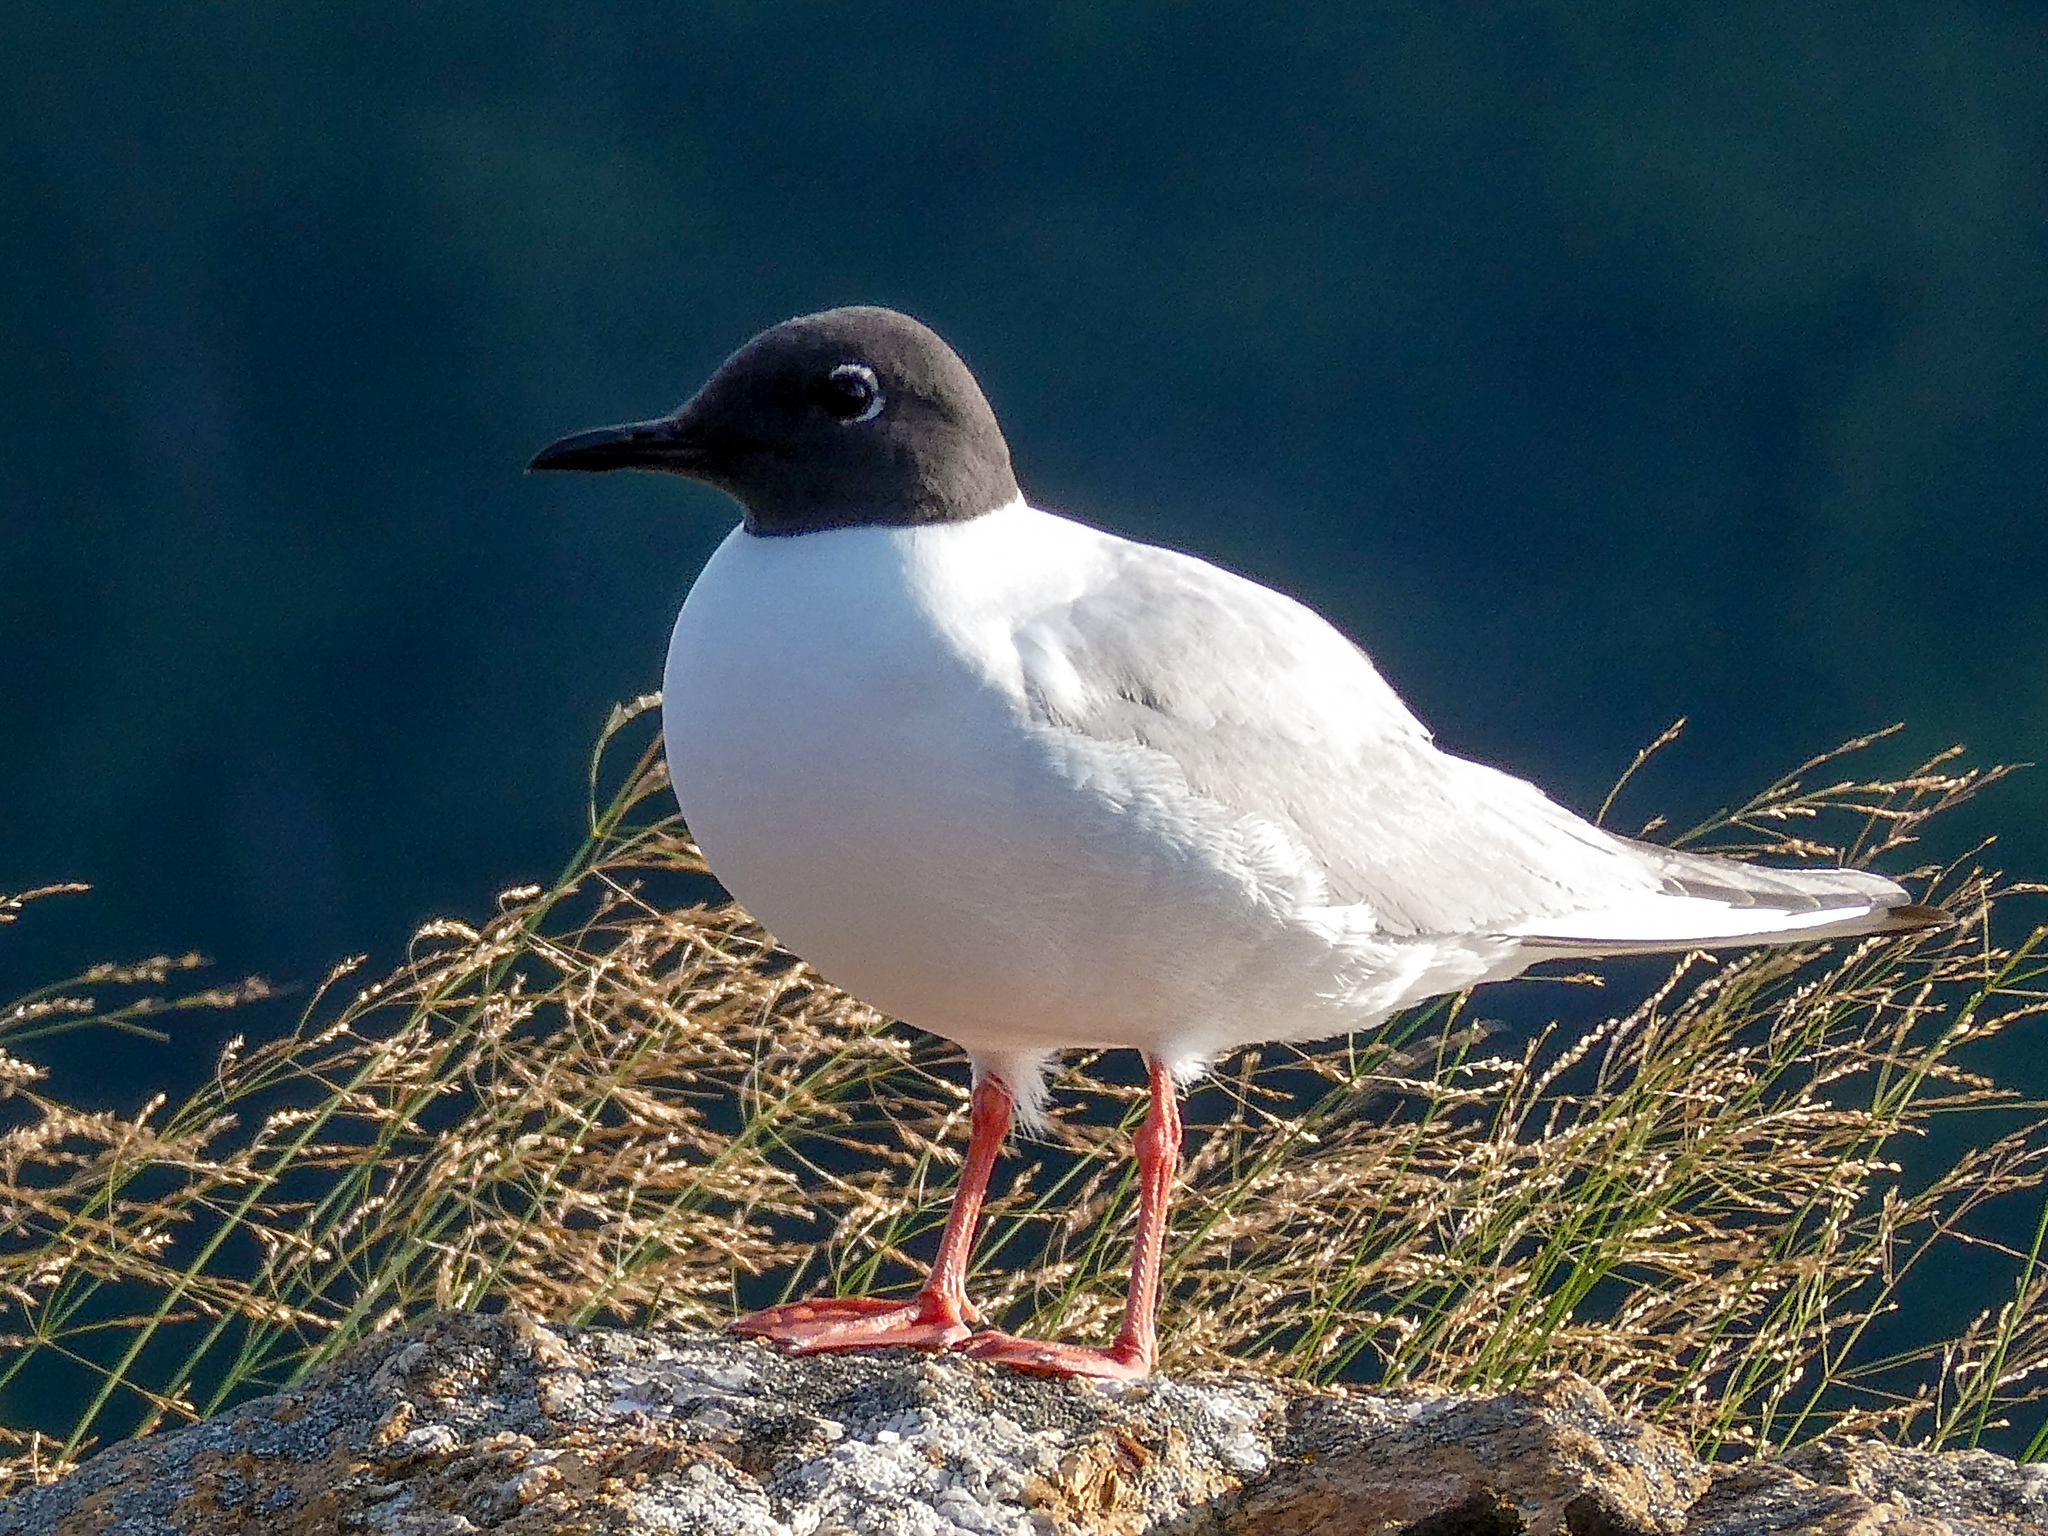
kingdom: Animalia
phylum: Chordata
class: Aves
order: Charadriiformes
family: Laridae
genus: Chroicocephalus
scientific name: Chroicocephalus philadelphia
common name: Bonaparte's gull
